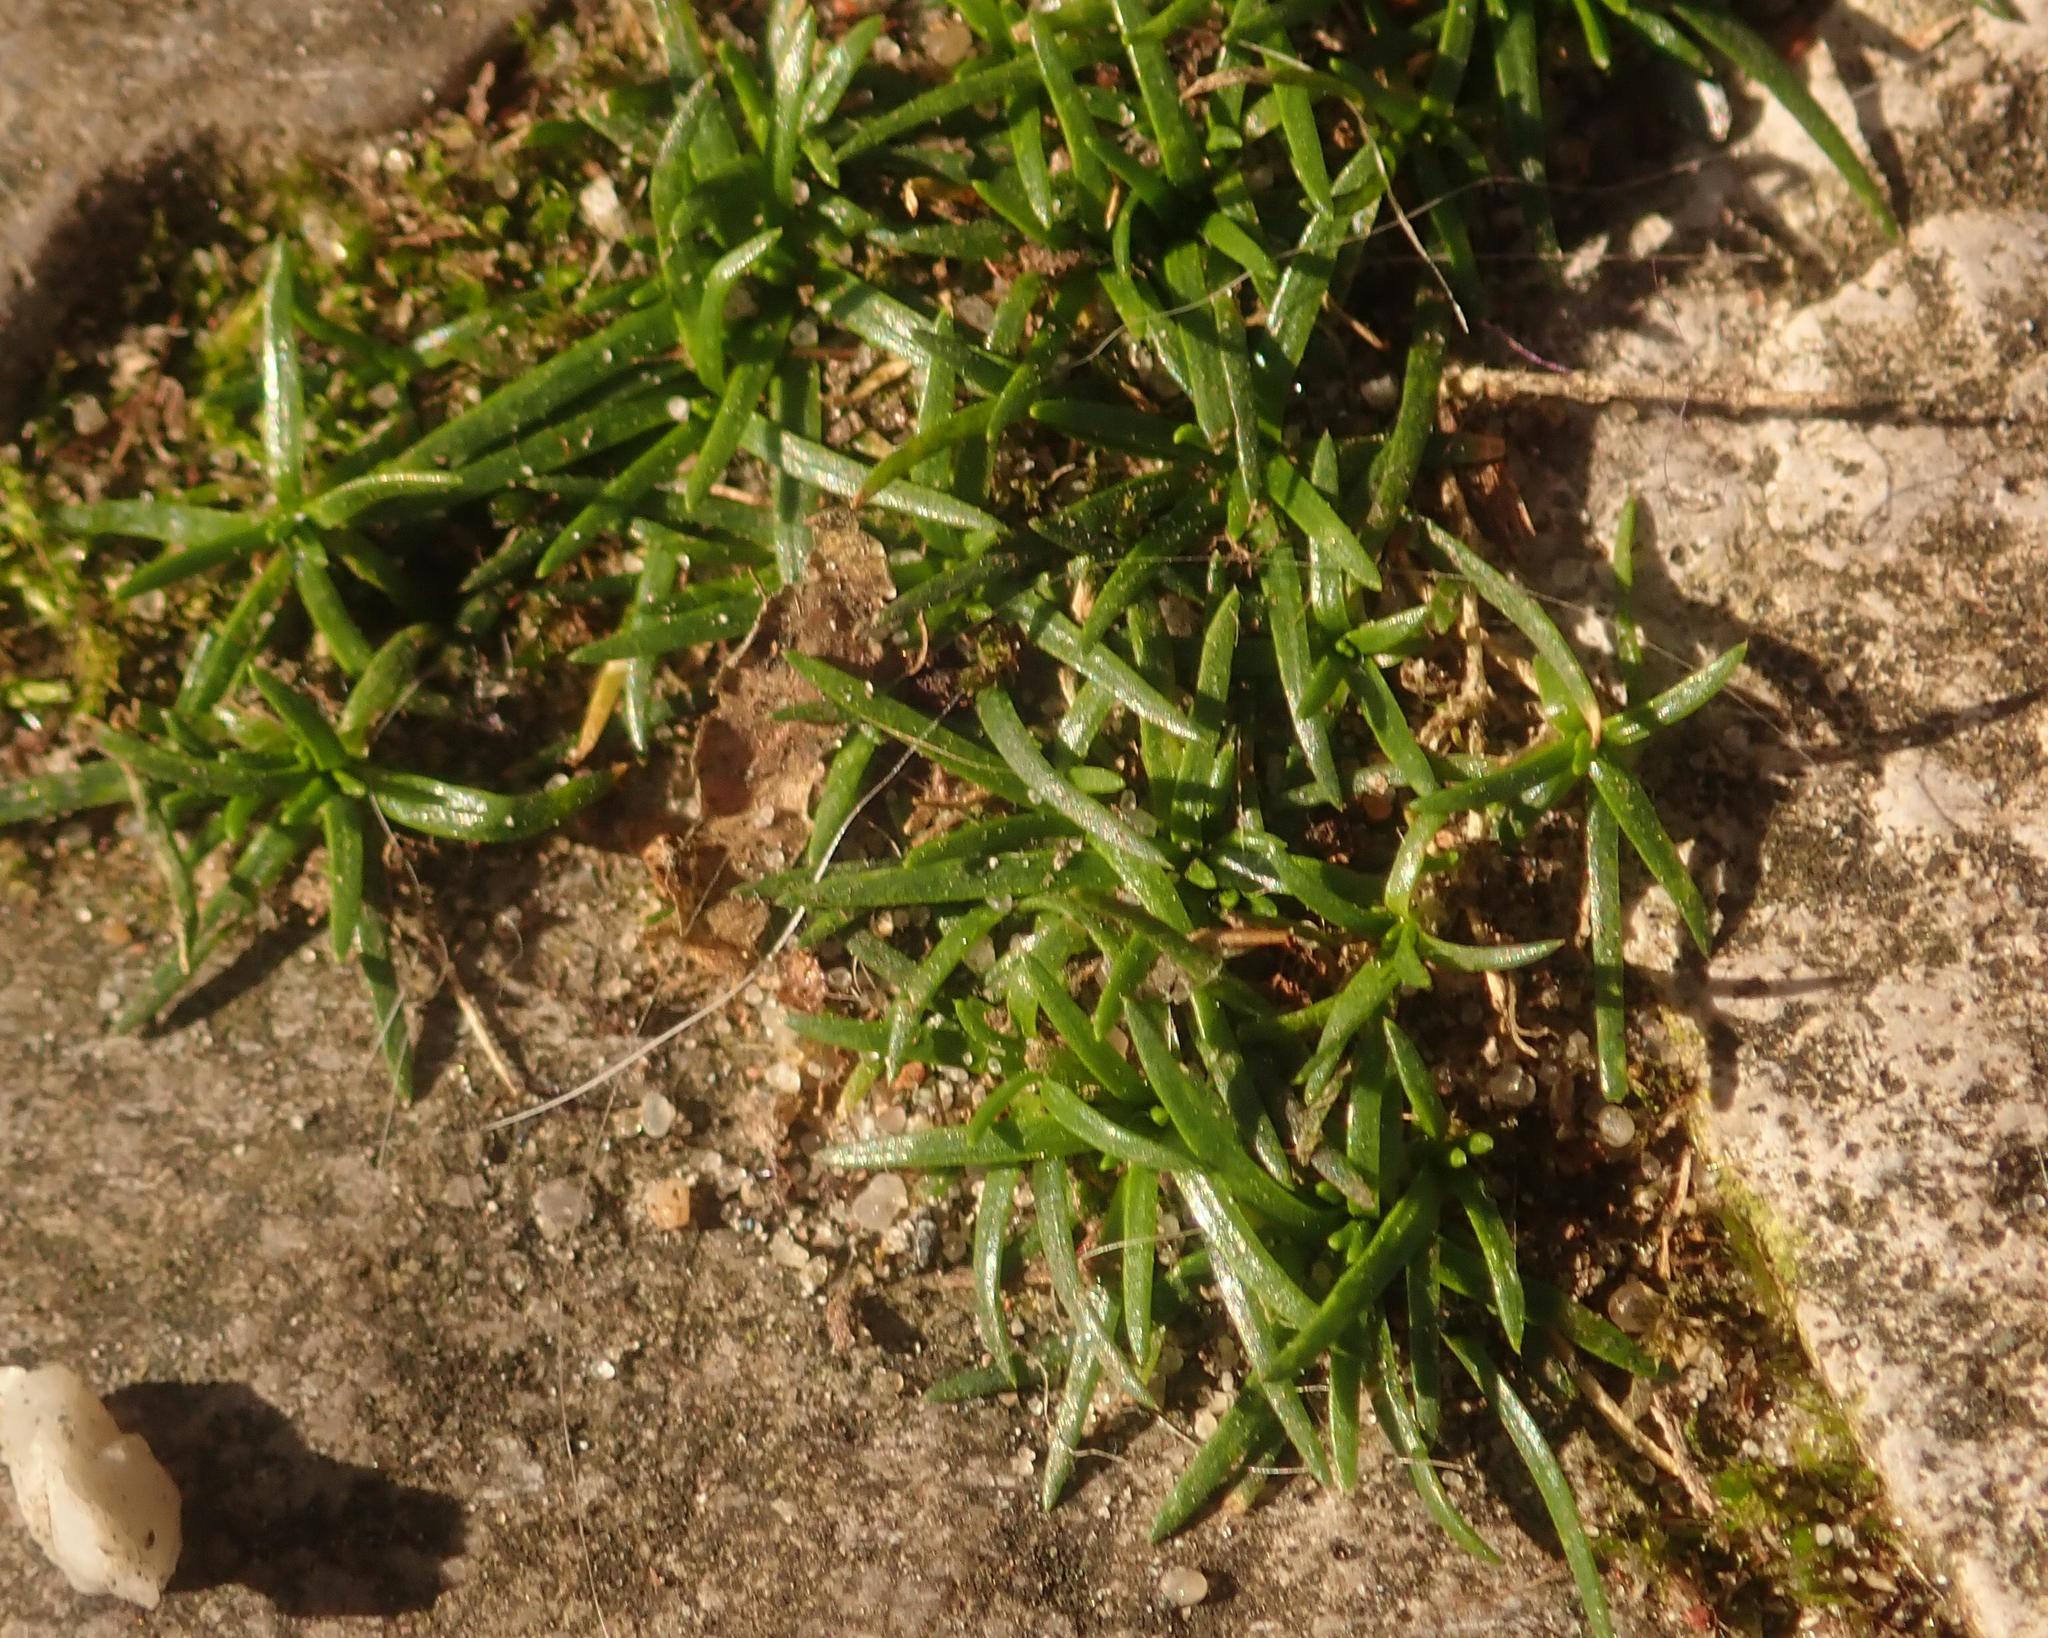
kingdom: Plantae
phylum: Tracheophyta
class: Magnoliopsida
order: Caryophyllales
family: Caryophyllaceae
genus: Sagina
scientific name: Sagina procumbens
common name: Procumbent pearlwort
